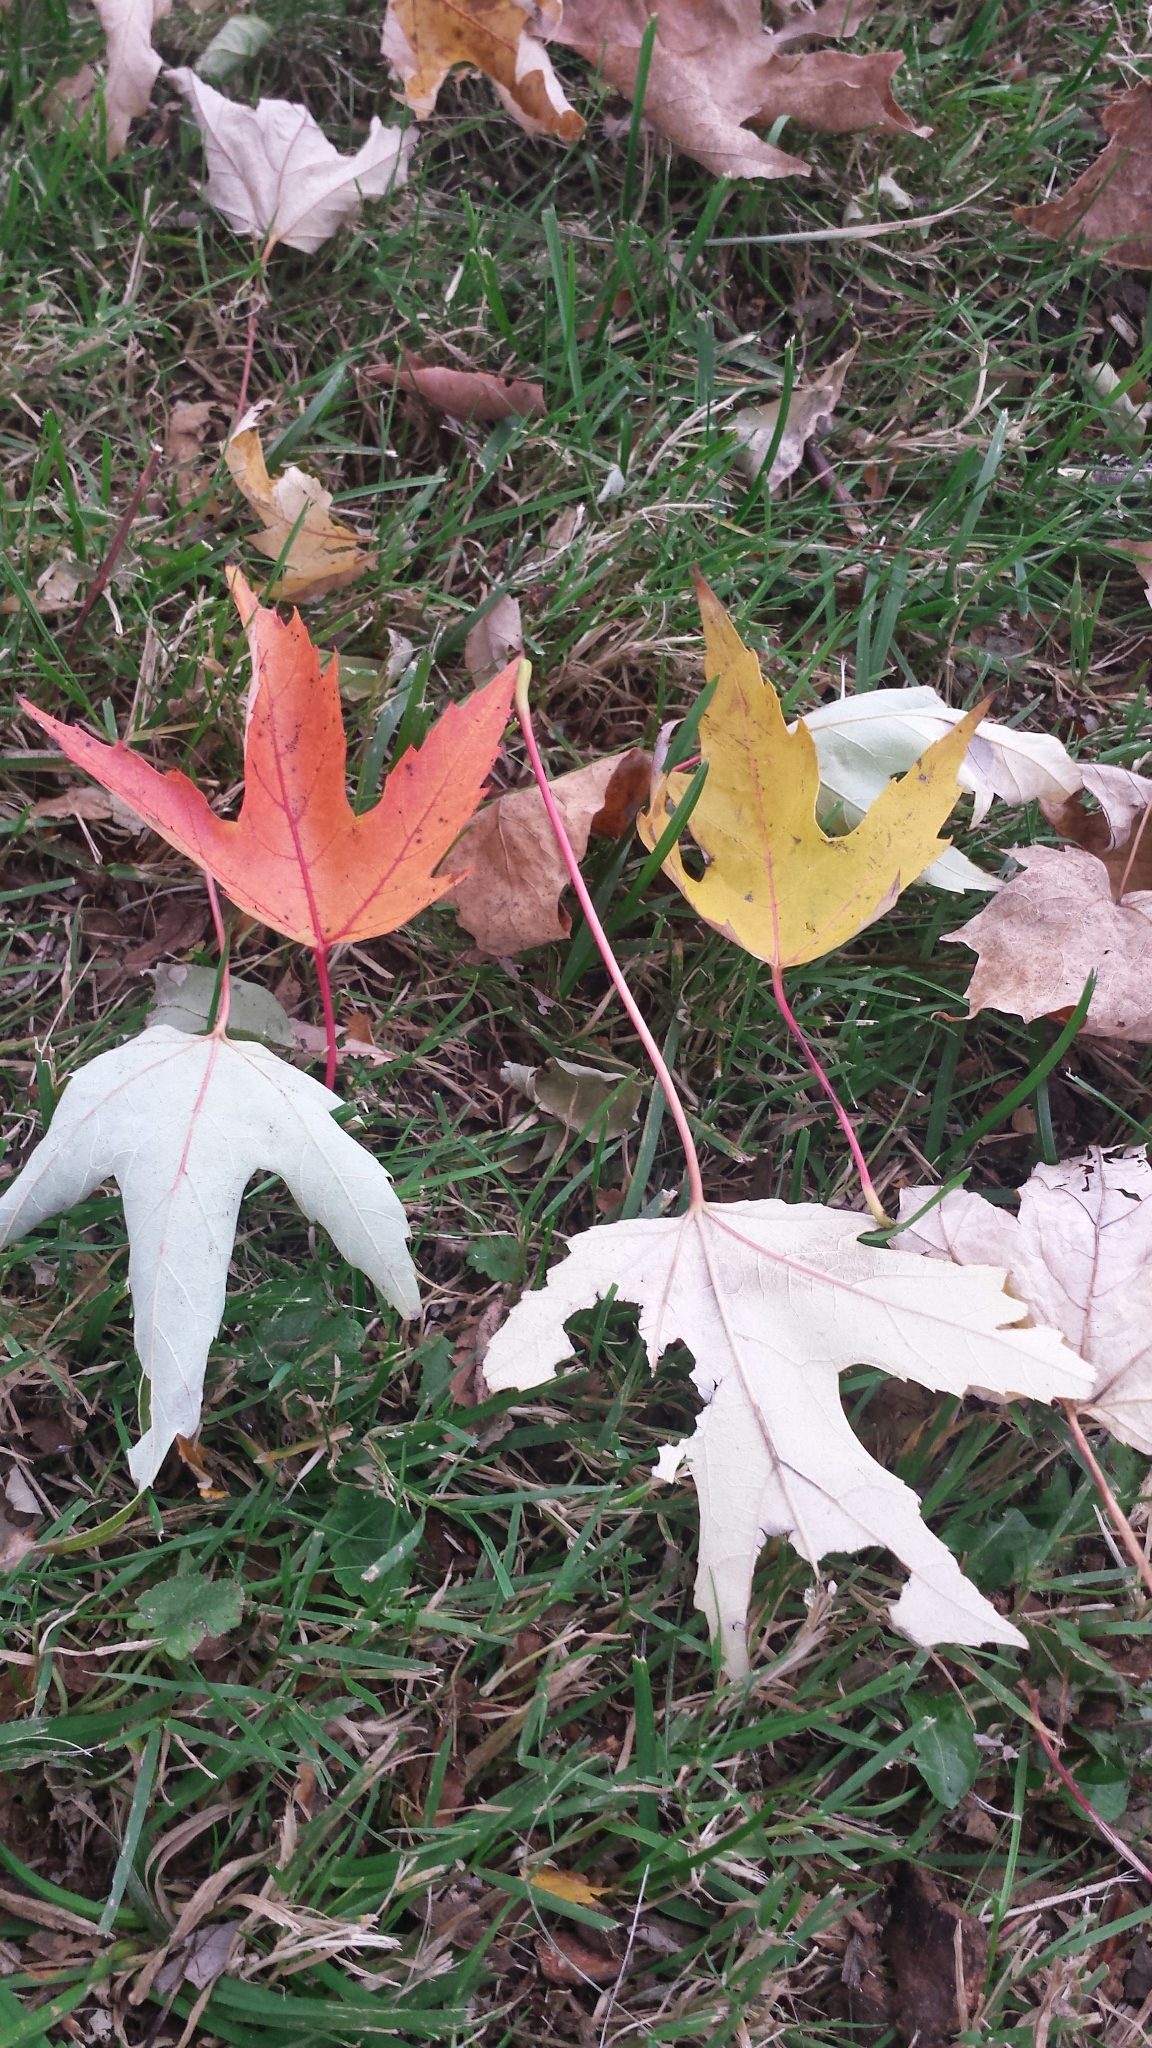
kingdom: Plantae
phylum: Tracheophyta
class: Magnoliopsida
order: Sapindales
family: Sapindaceae
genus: Acer
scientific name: Acer saccharinum
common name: Silver maple
